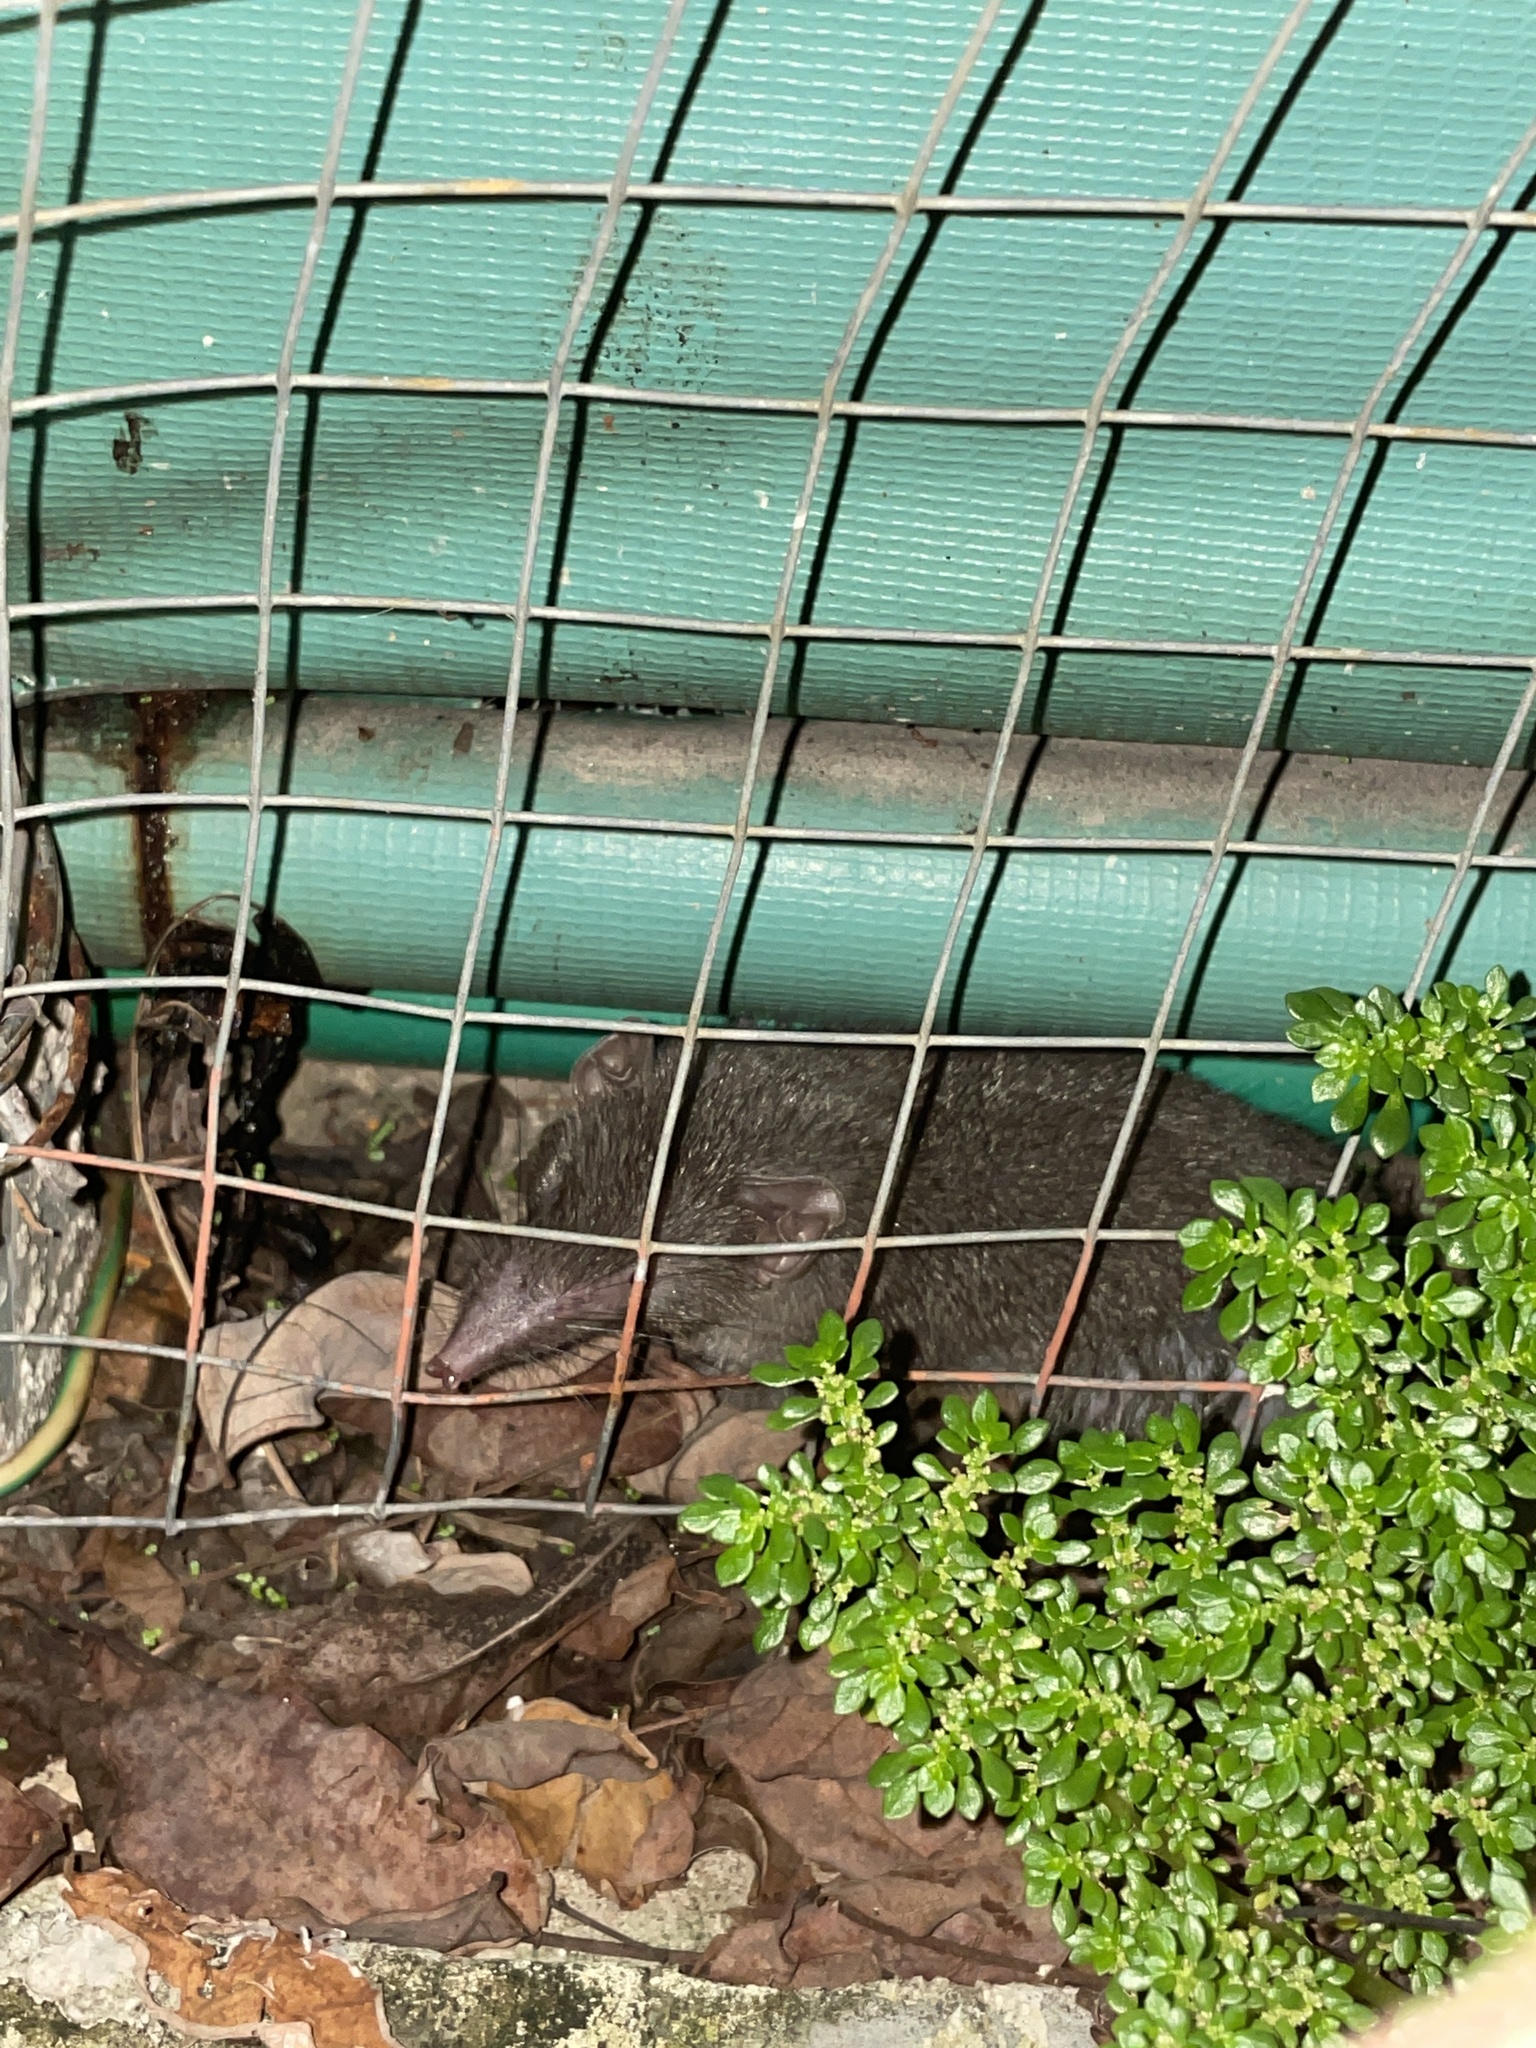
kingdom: Animalia
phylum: Chordata
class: Mammalia
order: Soricomorpha
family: Soricidae
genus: Suncus
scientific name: Suncus murinus
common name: Asian house shrew
